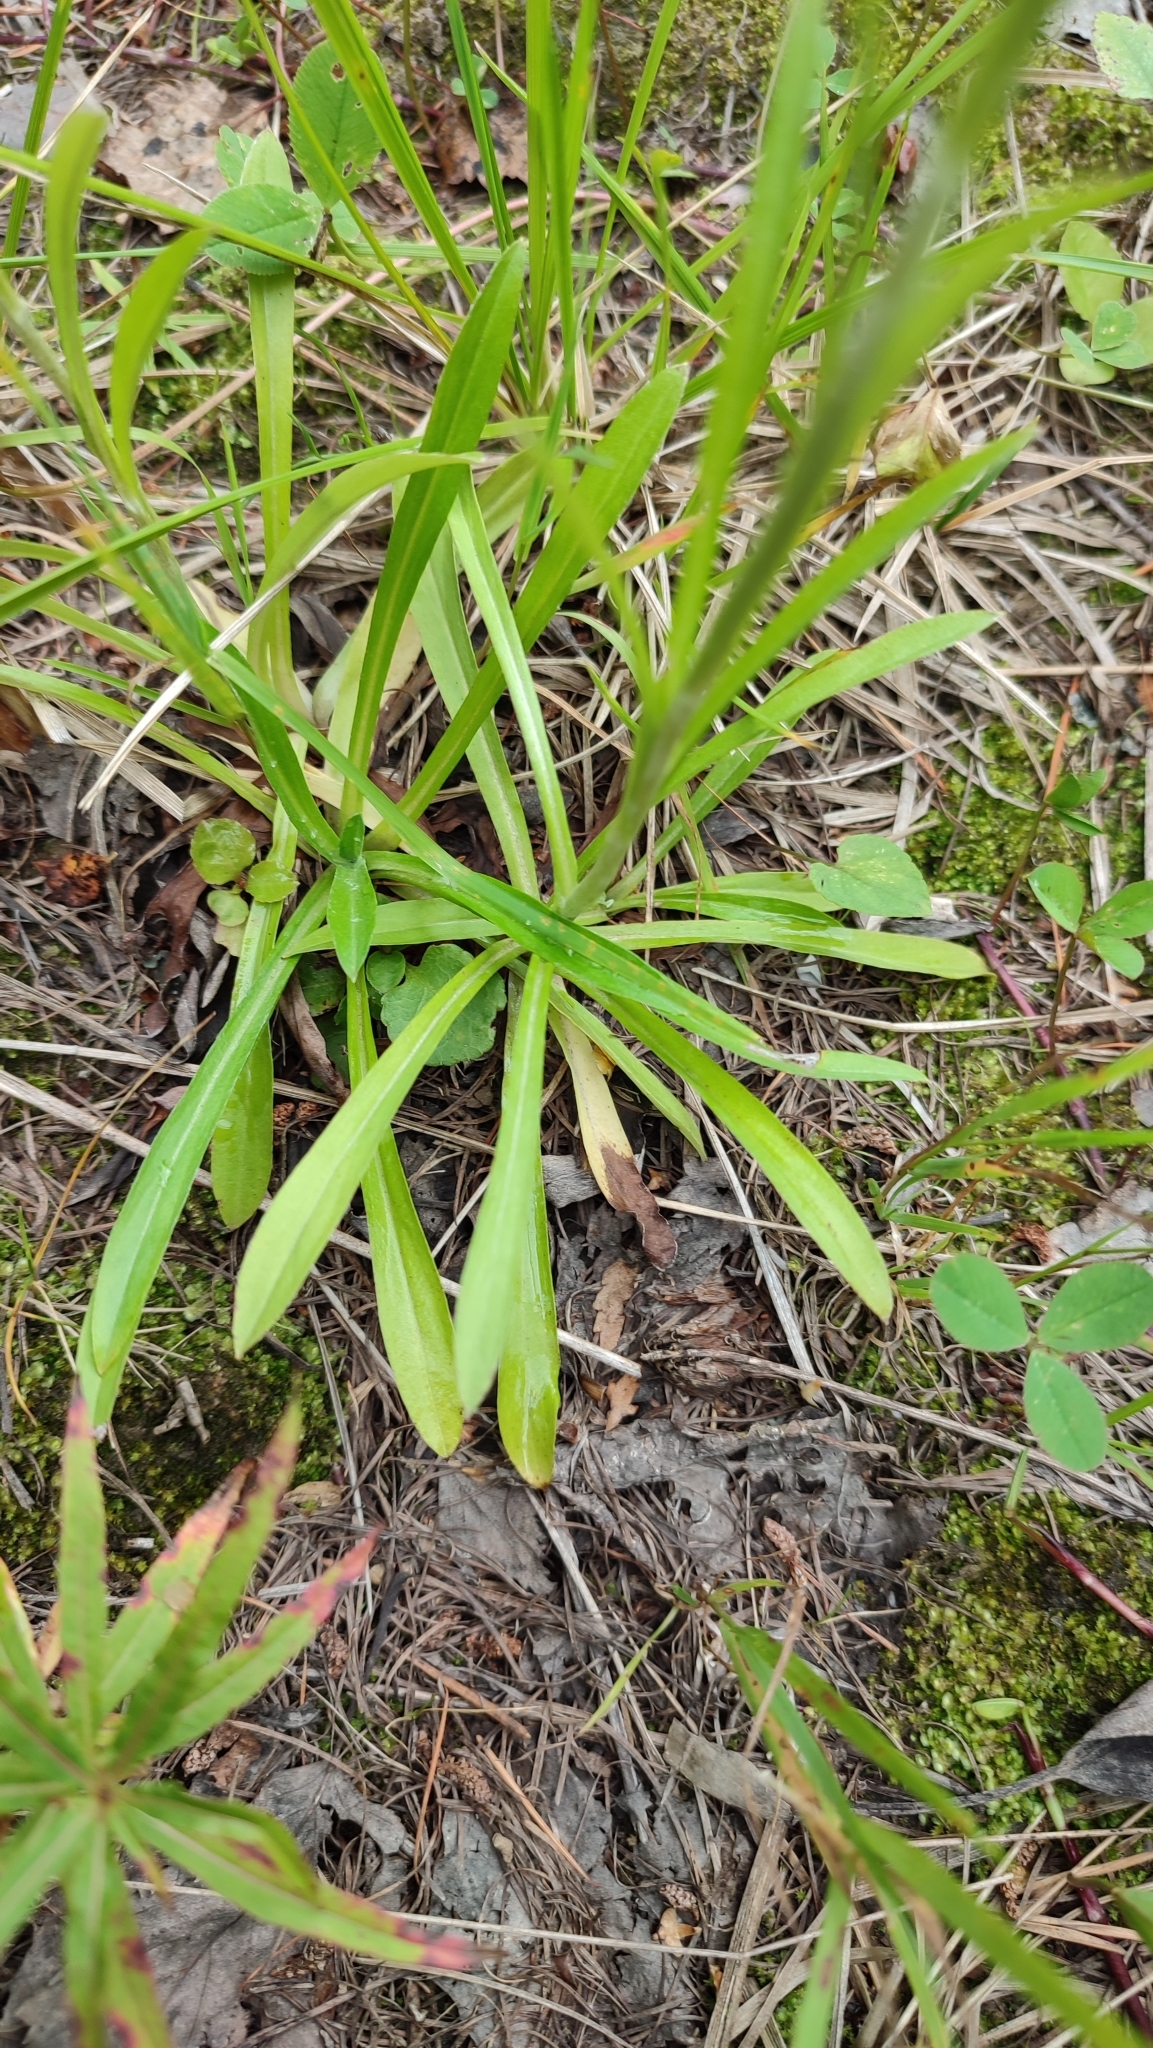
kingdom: Plantae
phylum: Tracheophyta
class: Magnoliopsida
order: Asterales
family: Asteraceae
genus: Omalotheca
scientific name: Omalotheca sylvatica
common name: Heath cudweed
